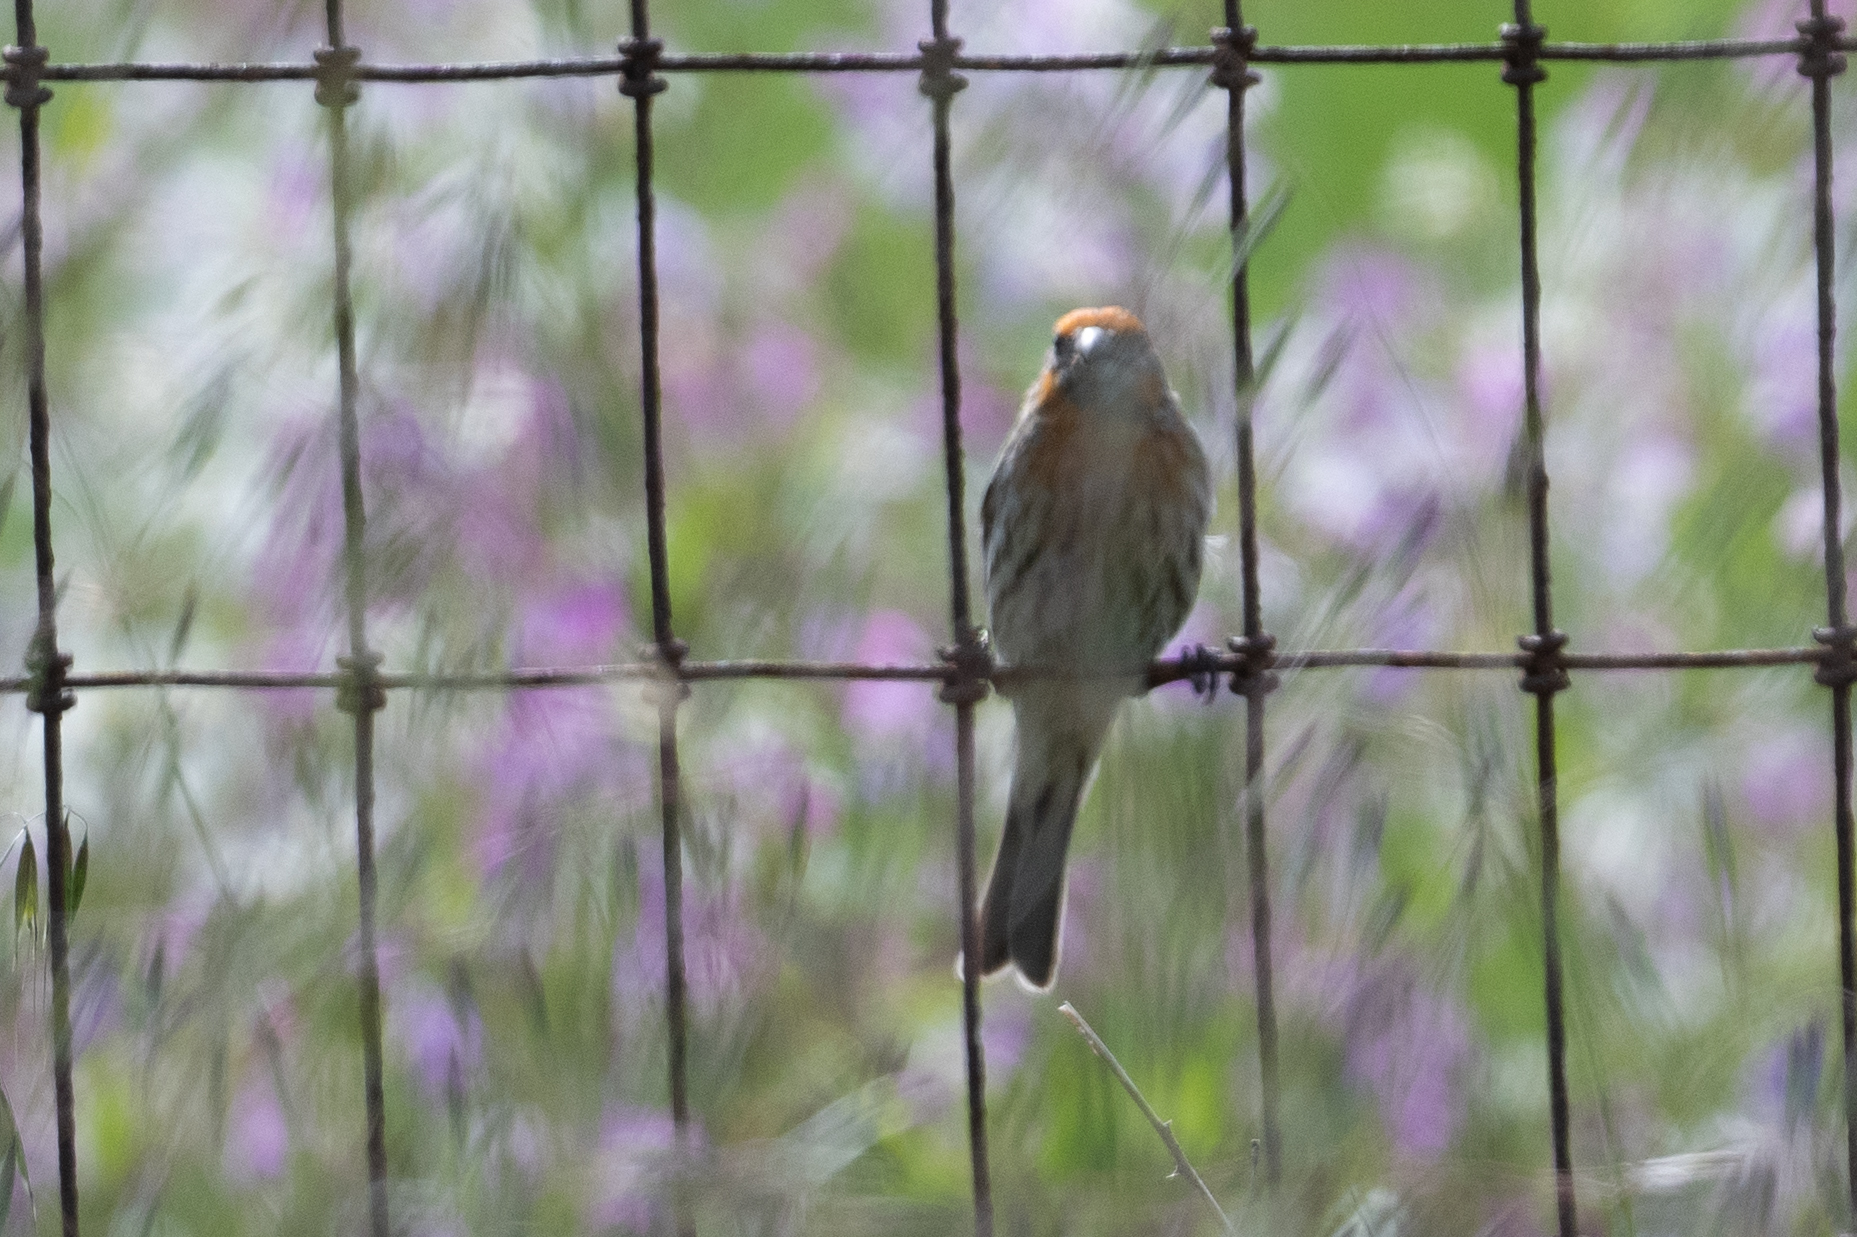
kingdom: Animalia
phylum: Chordata
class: Aves
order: Passeriformes
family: Fringillidae
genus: Haemorhous
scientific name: Haemorhous mexicanus
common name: House finch
